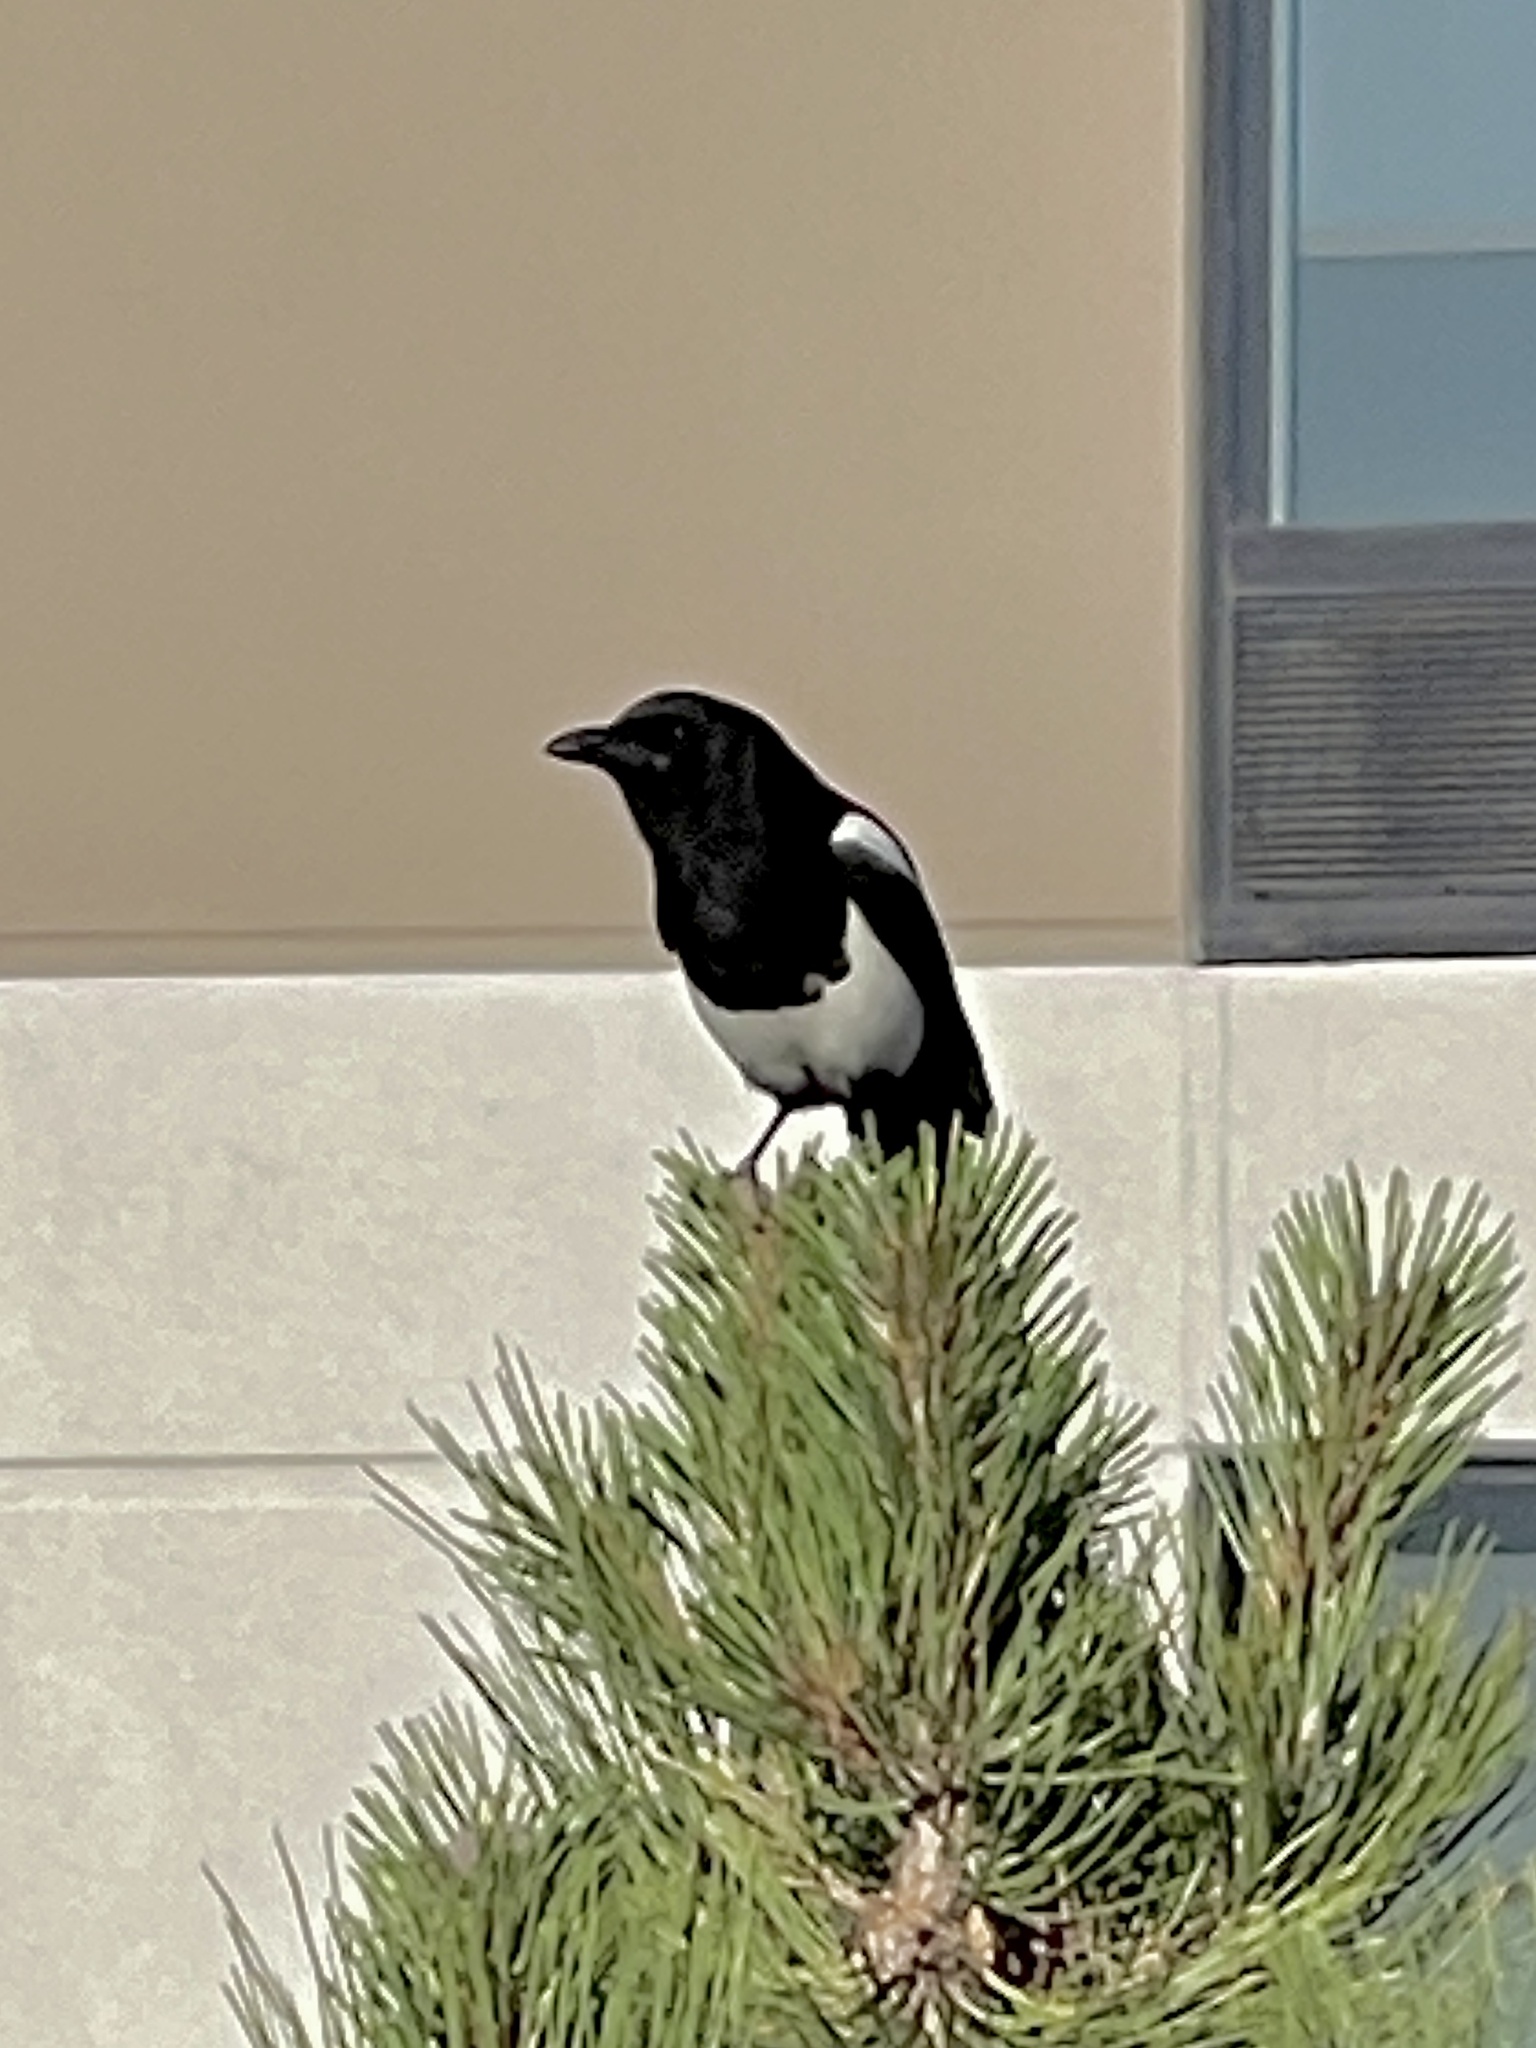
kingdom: Animalia
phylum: Chordata
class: Aves
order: Passeriformes
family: Corvidae
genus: Pica
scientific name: Pica hudsonia
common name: Black-billed magpie
